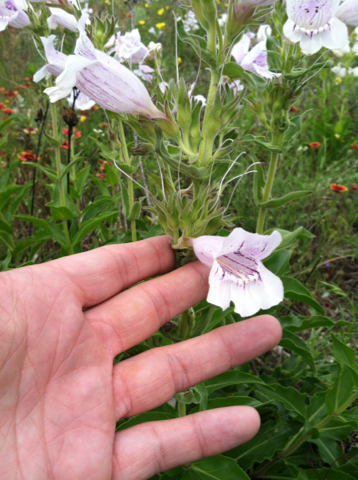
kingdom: Plantae
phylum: Tracheophyta
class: Magnoliopsida
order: Lamiales
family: Plantaginaceae
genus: Penstemon
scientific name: Penstemon cobaea
